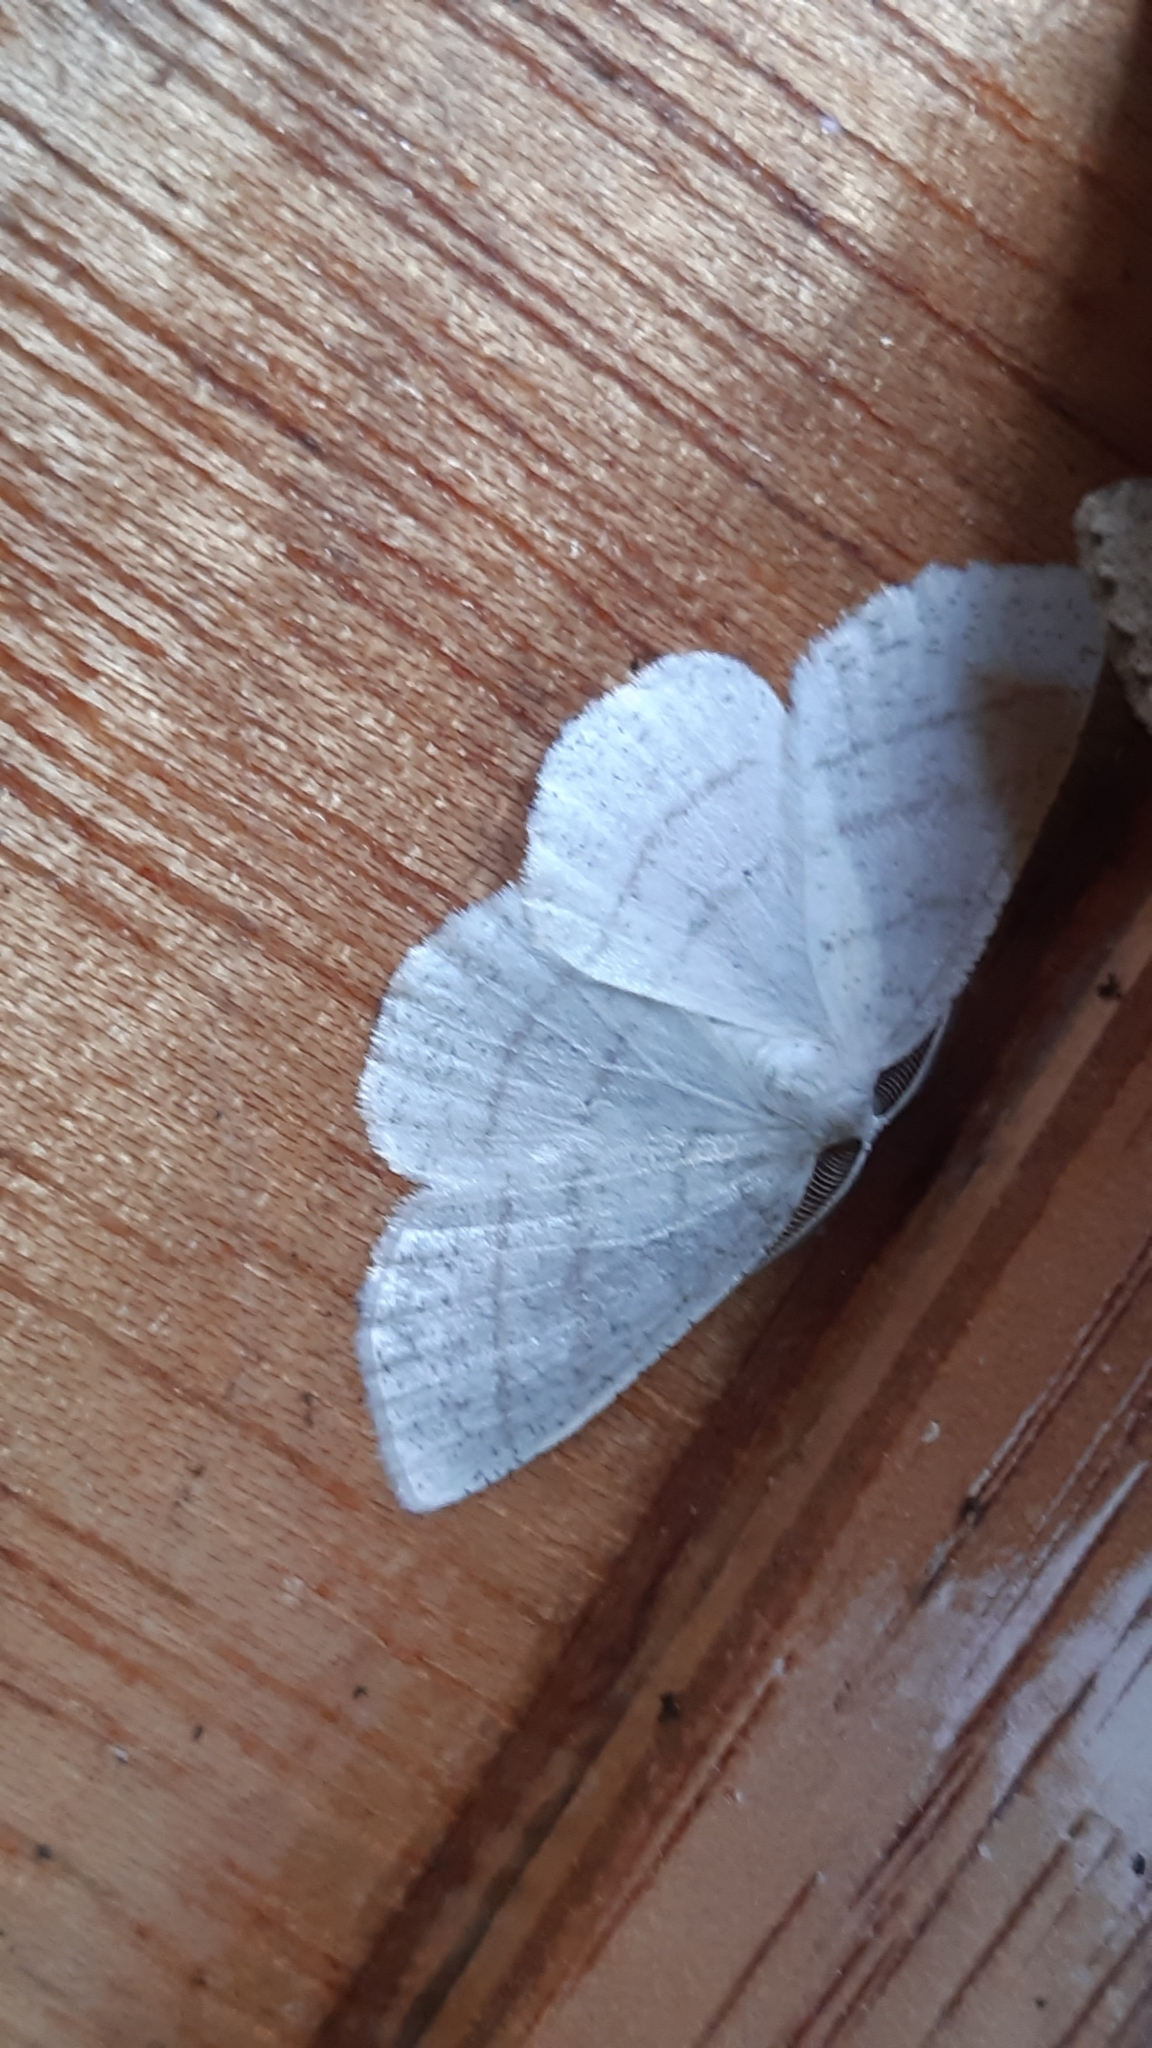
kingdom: Animalia
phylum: Arthropoda
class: Insecta
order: Lepidoptera
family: Geometridae
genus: Cabera
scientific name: Cabera pusaria
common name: Common white wave
